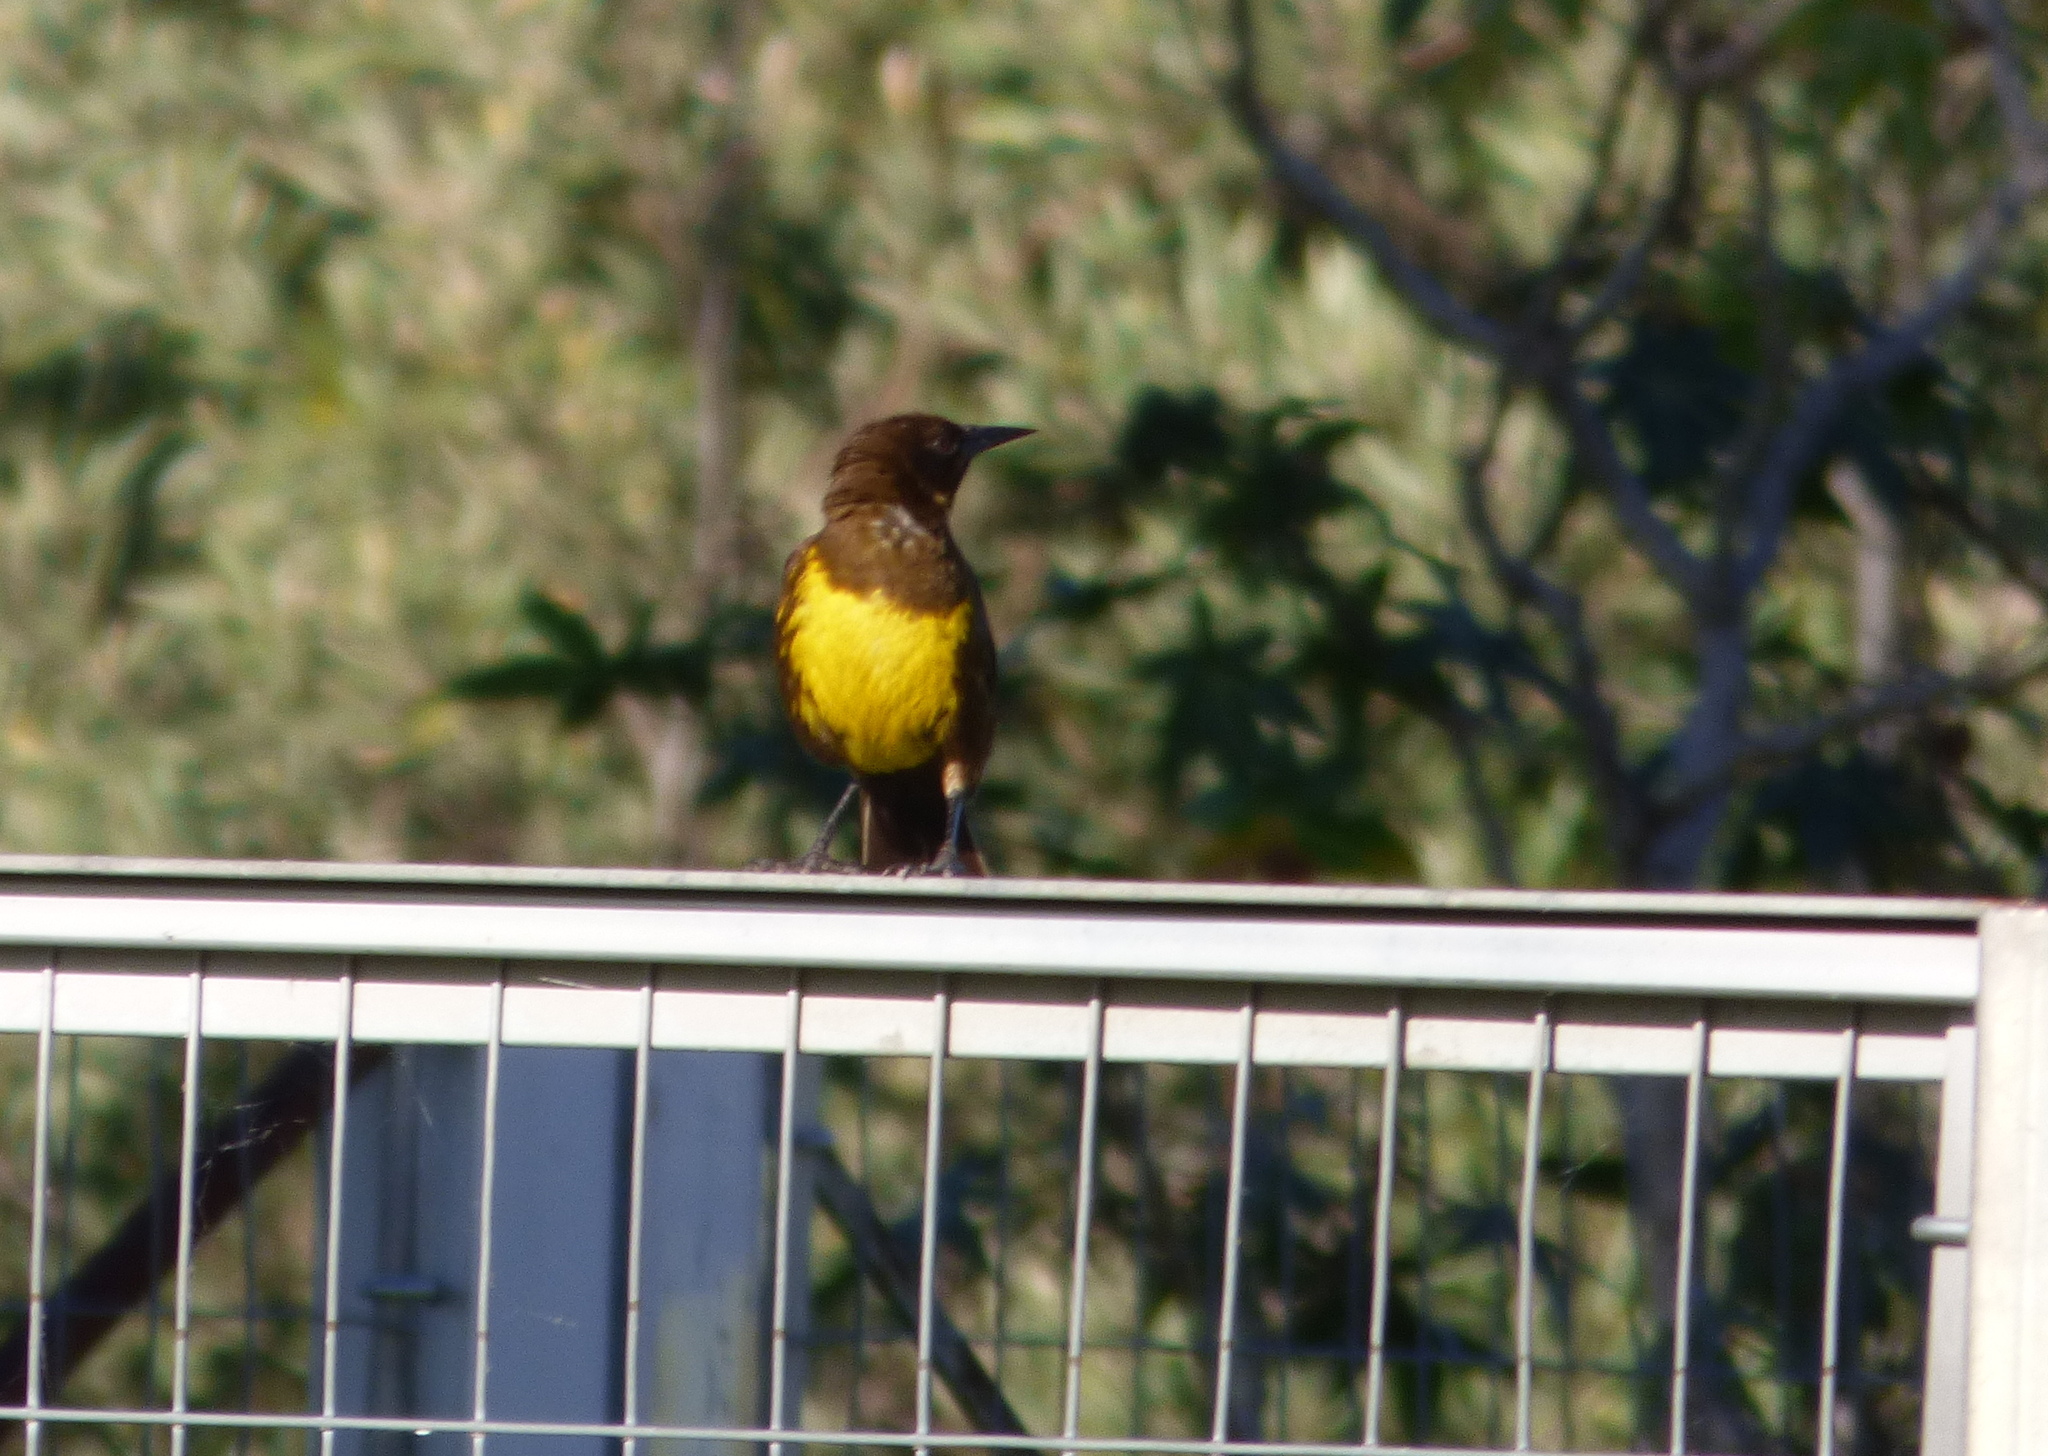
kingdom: Animalia
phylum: Chordata
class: Aves
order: Passeriformes
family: Icteridae
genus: Pseudoleistes
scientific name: Pseudoleistes virescens
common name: Brown-and-yellow marshbird
